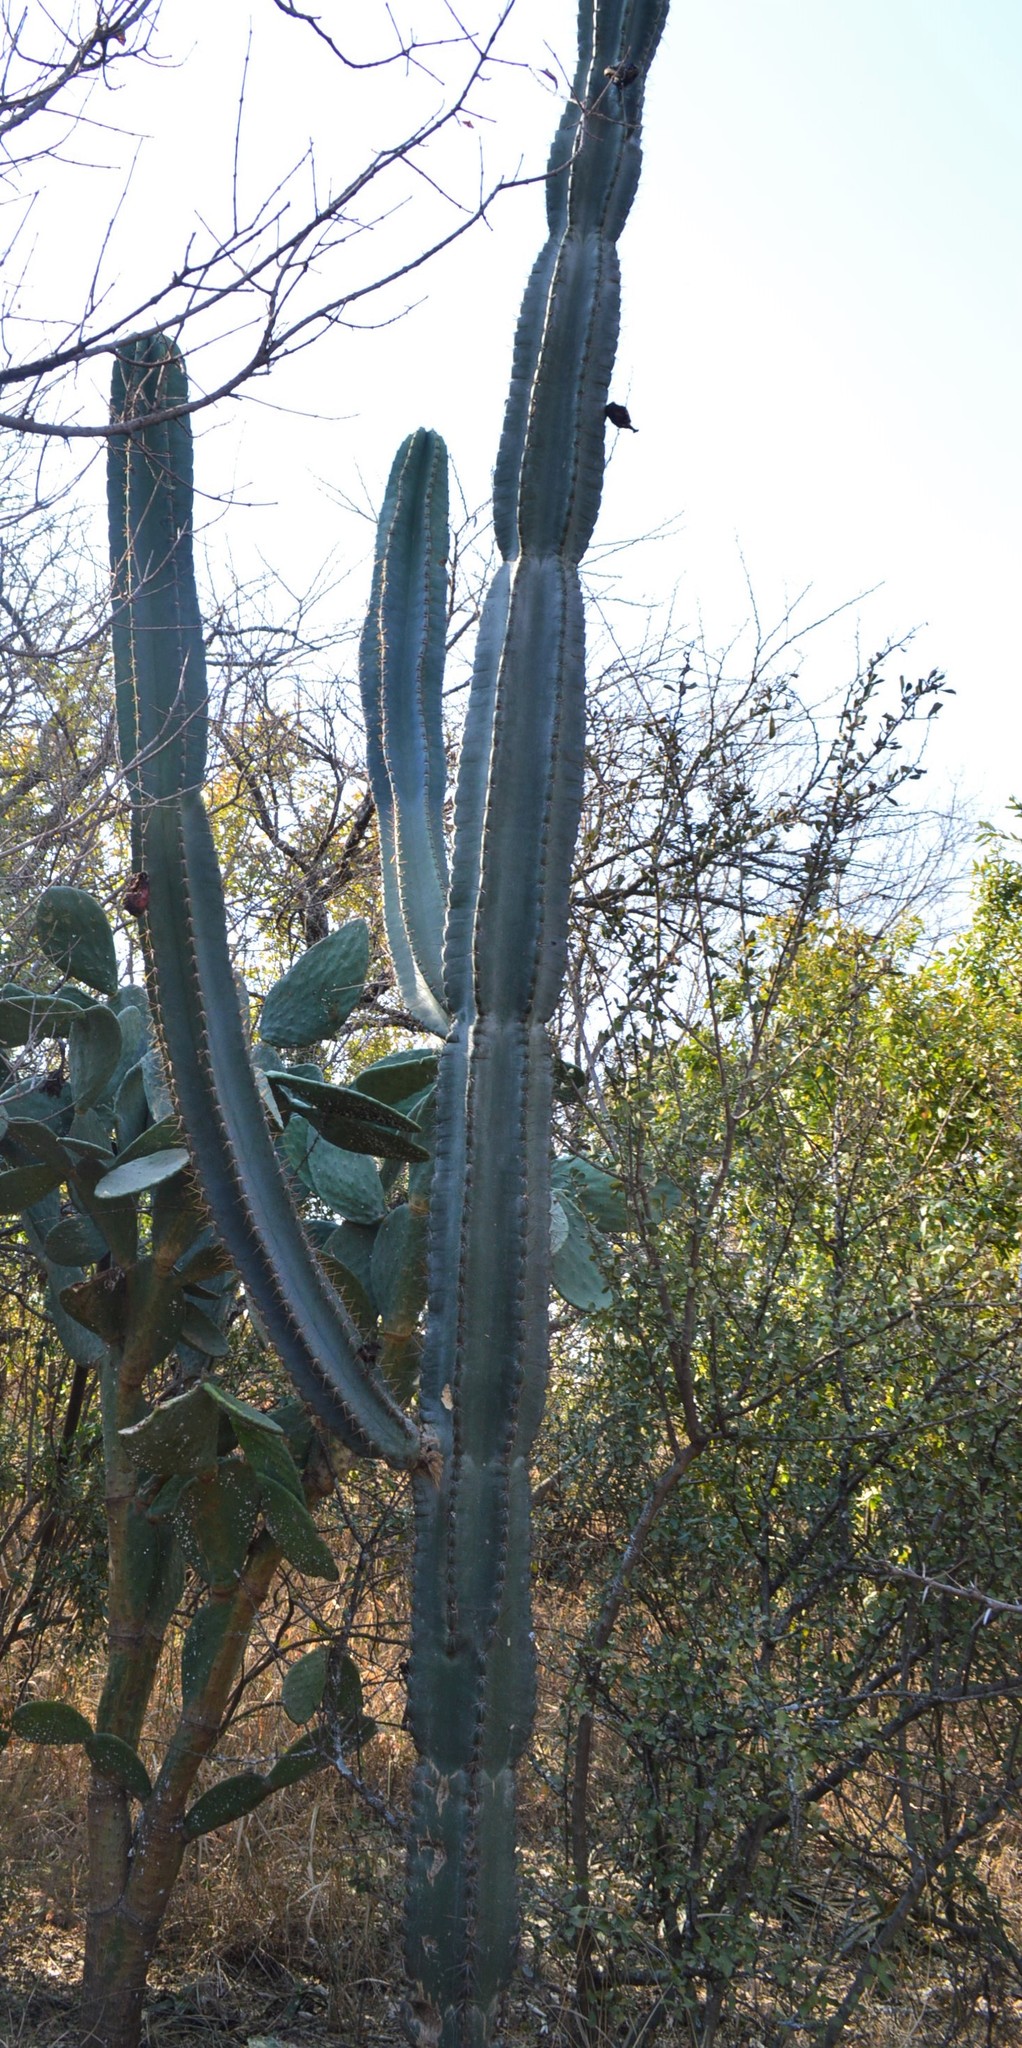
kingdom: Plantae
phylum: Tracheophyta
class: Magnoliopsida
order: Caryophyllales
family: Cactaceae
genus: Cereus
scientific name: Cereus jamacaru
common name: Queen-of-the-night
